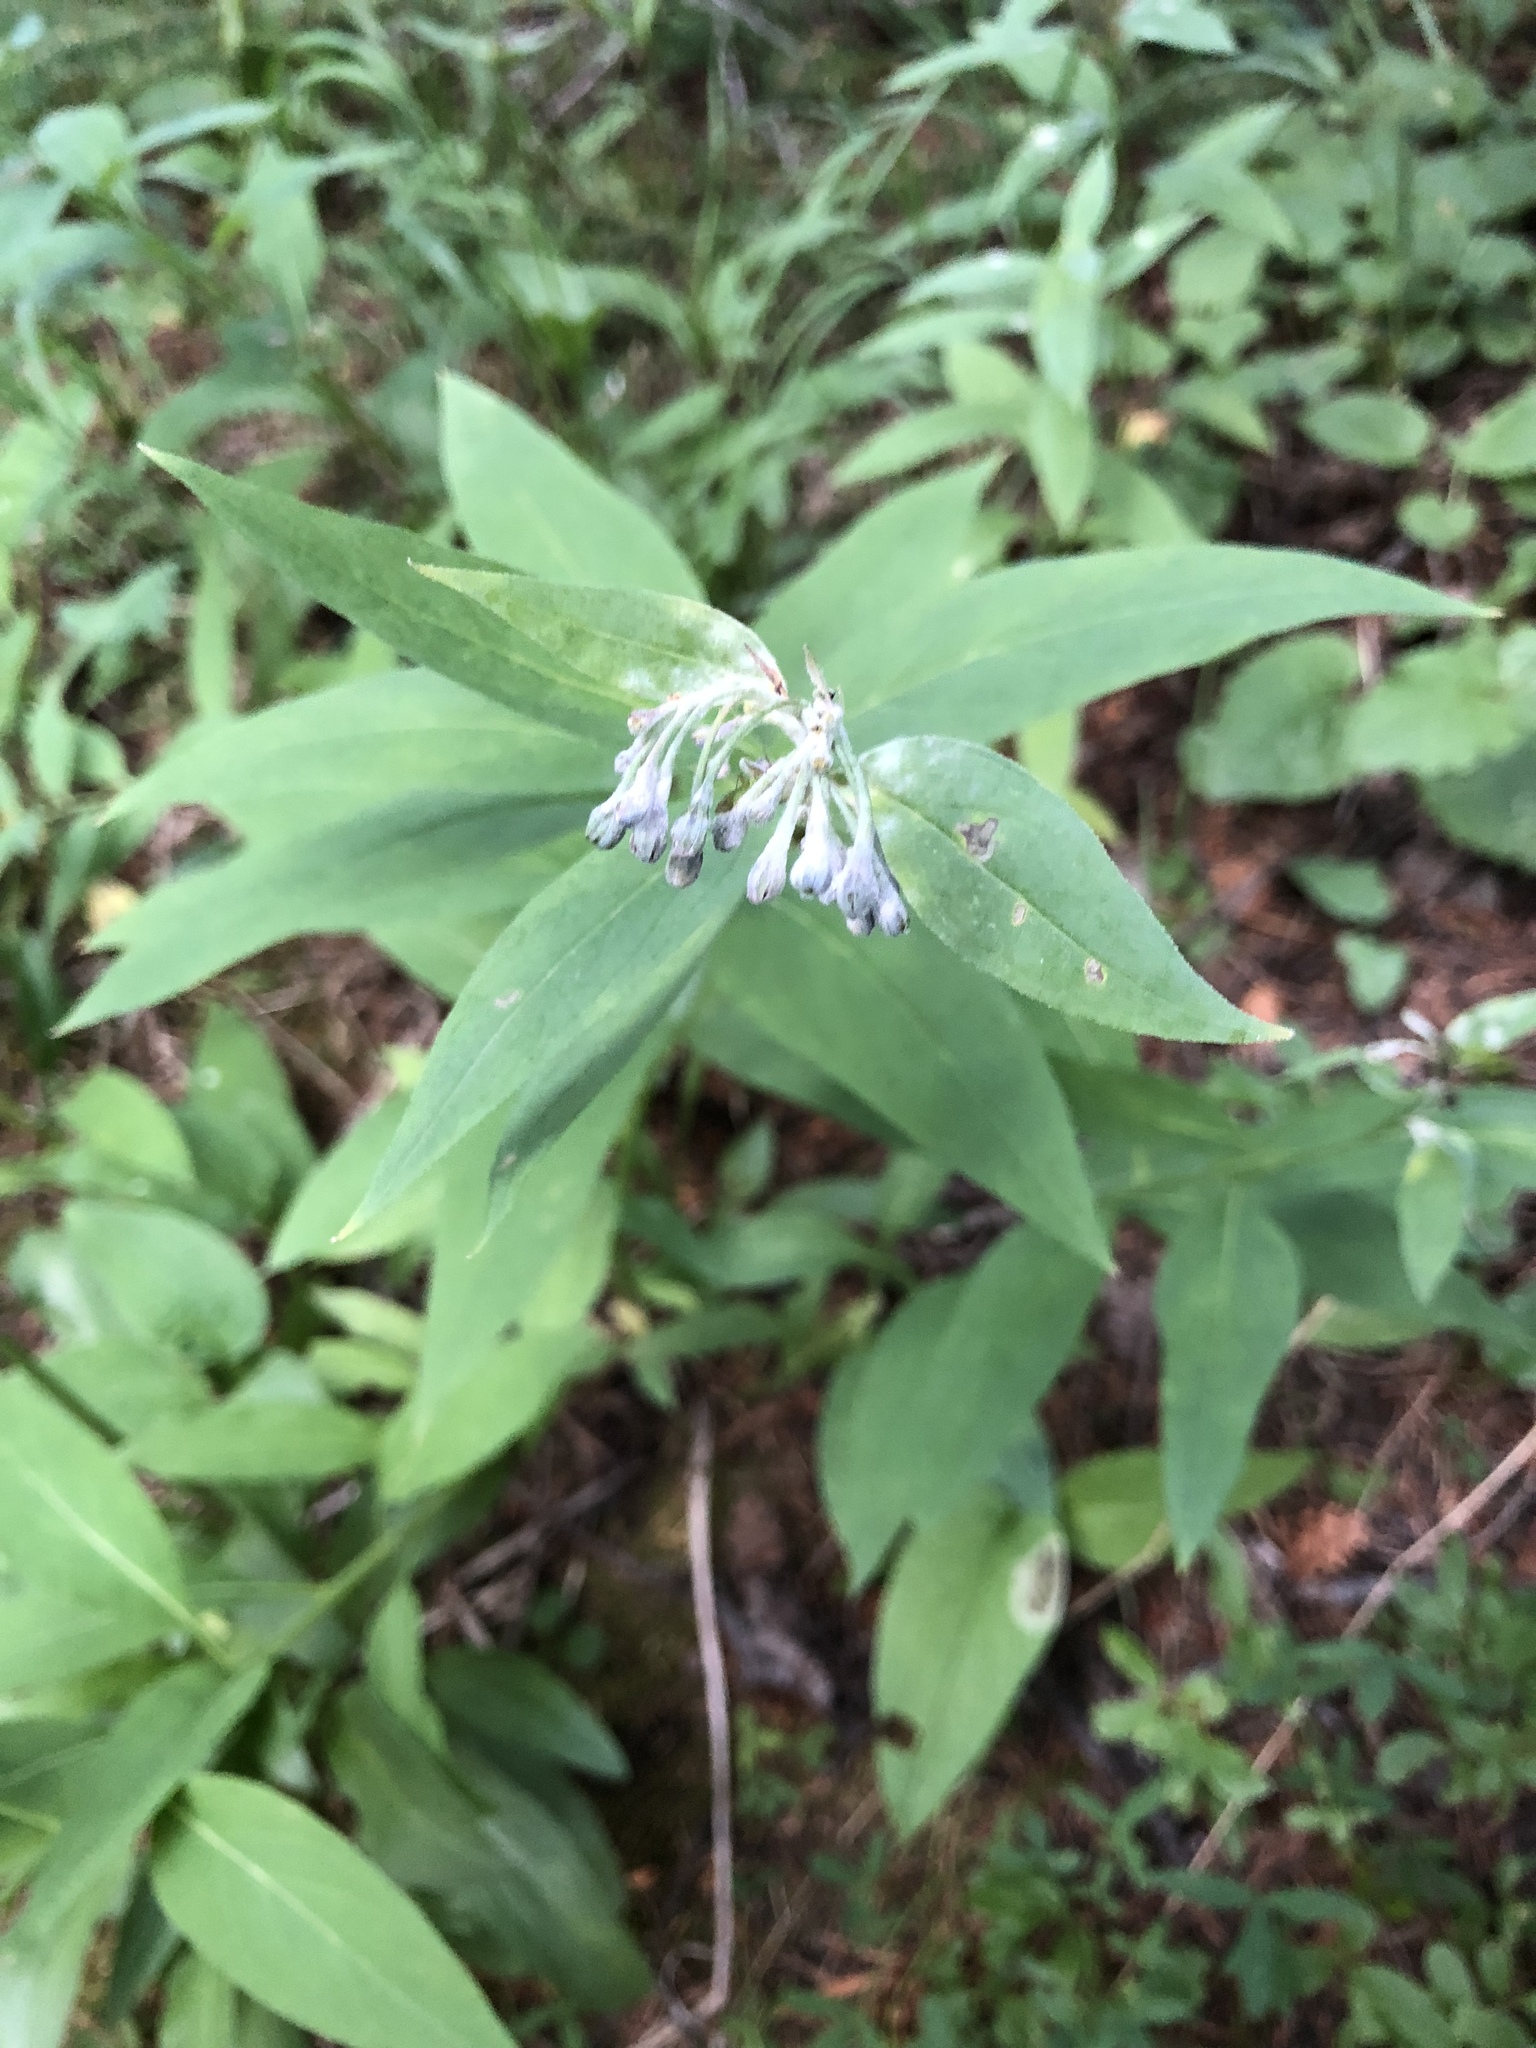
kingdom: Plantae
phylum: Tracheophyta
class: Magnoliopsida
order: Boraginales
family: Boraginaceae
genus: Mertensia
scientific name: Mertensia ciliata
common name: Tall chiming-bells
